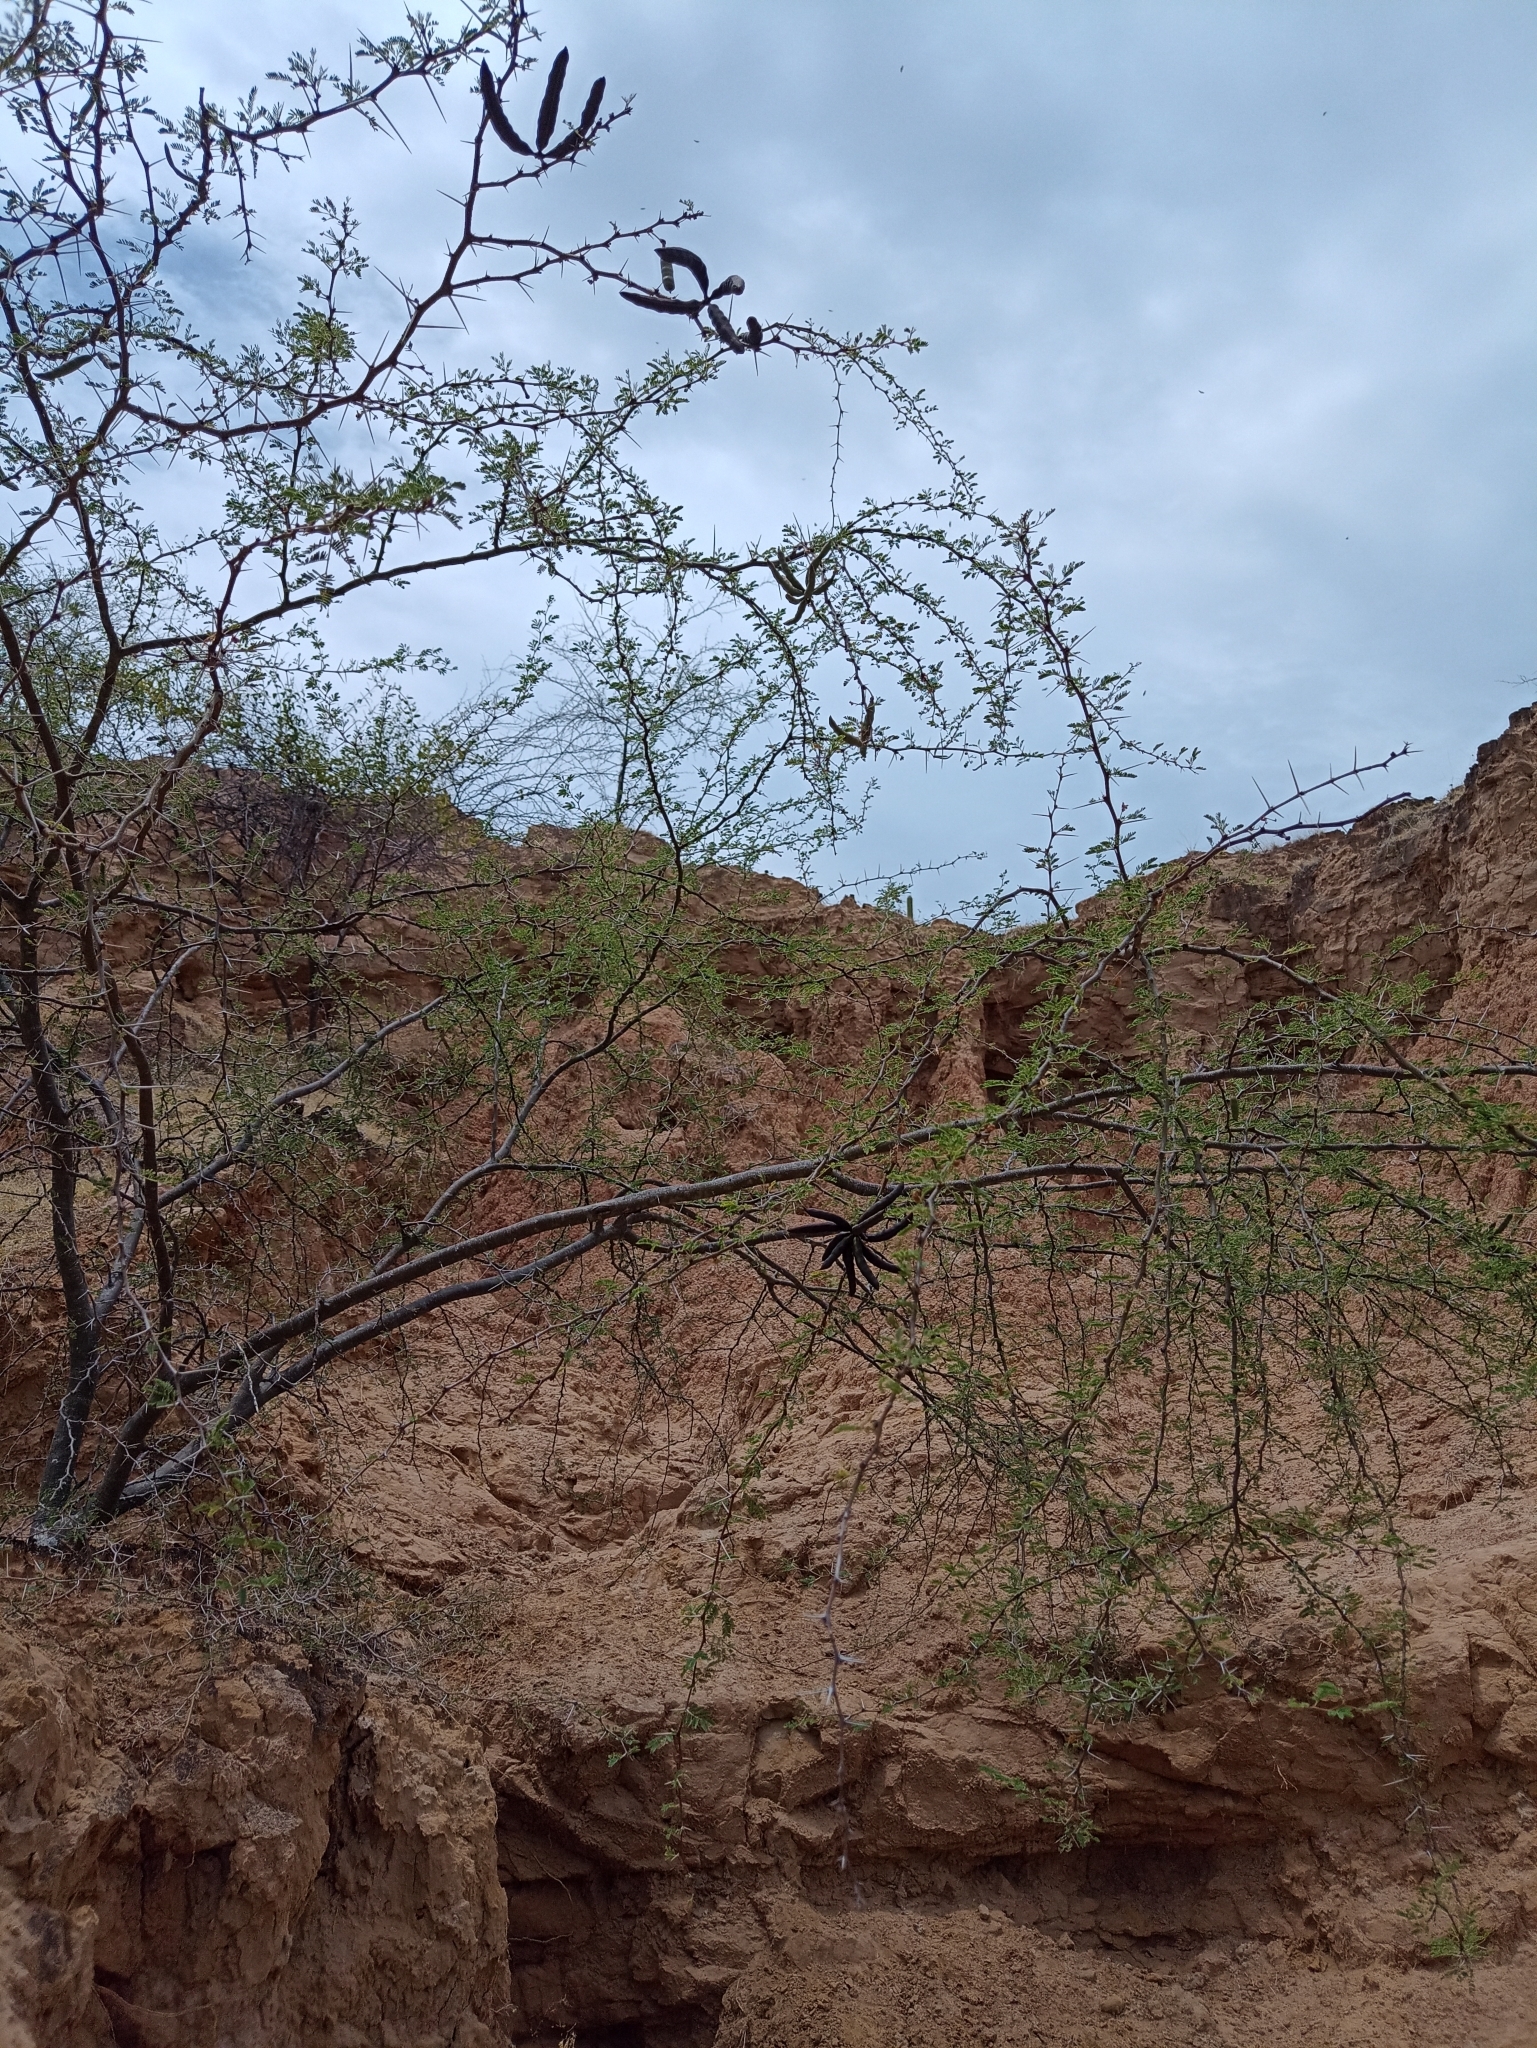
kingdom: Plantae
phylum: Tracheophyta
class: Magnoliopsida
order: Fabales
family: Fabaceae
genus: Pithecellobium
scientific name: Pithecellobium dulce
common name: Monkeypod
